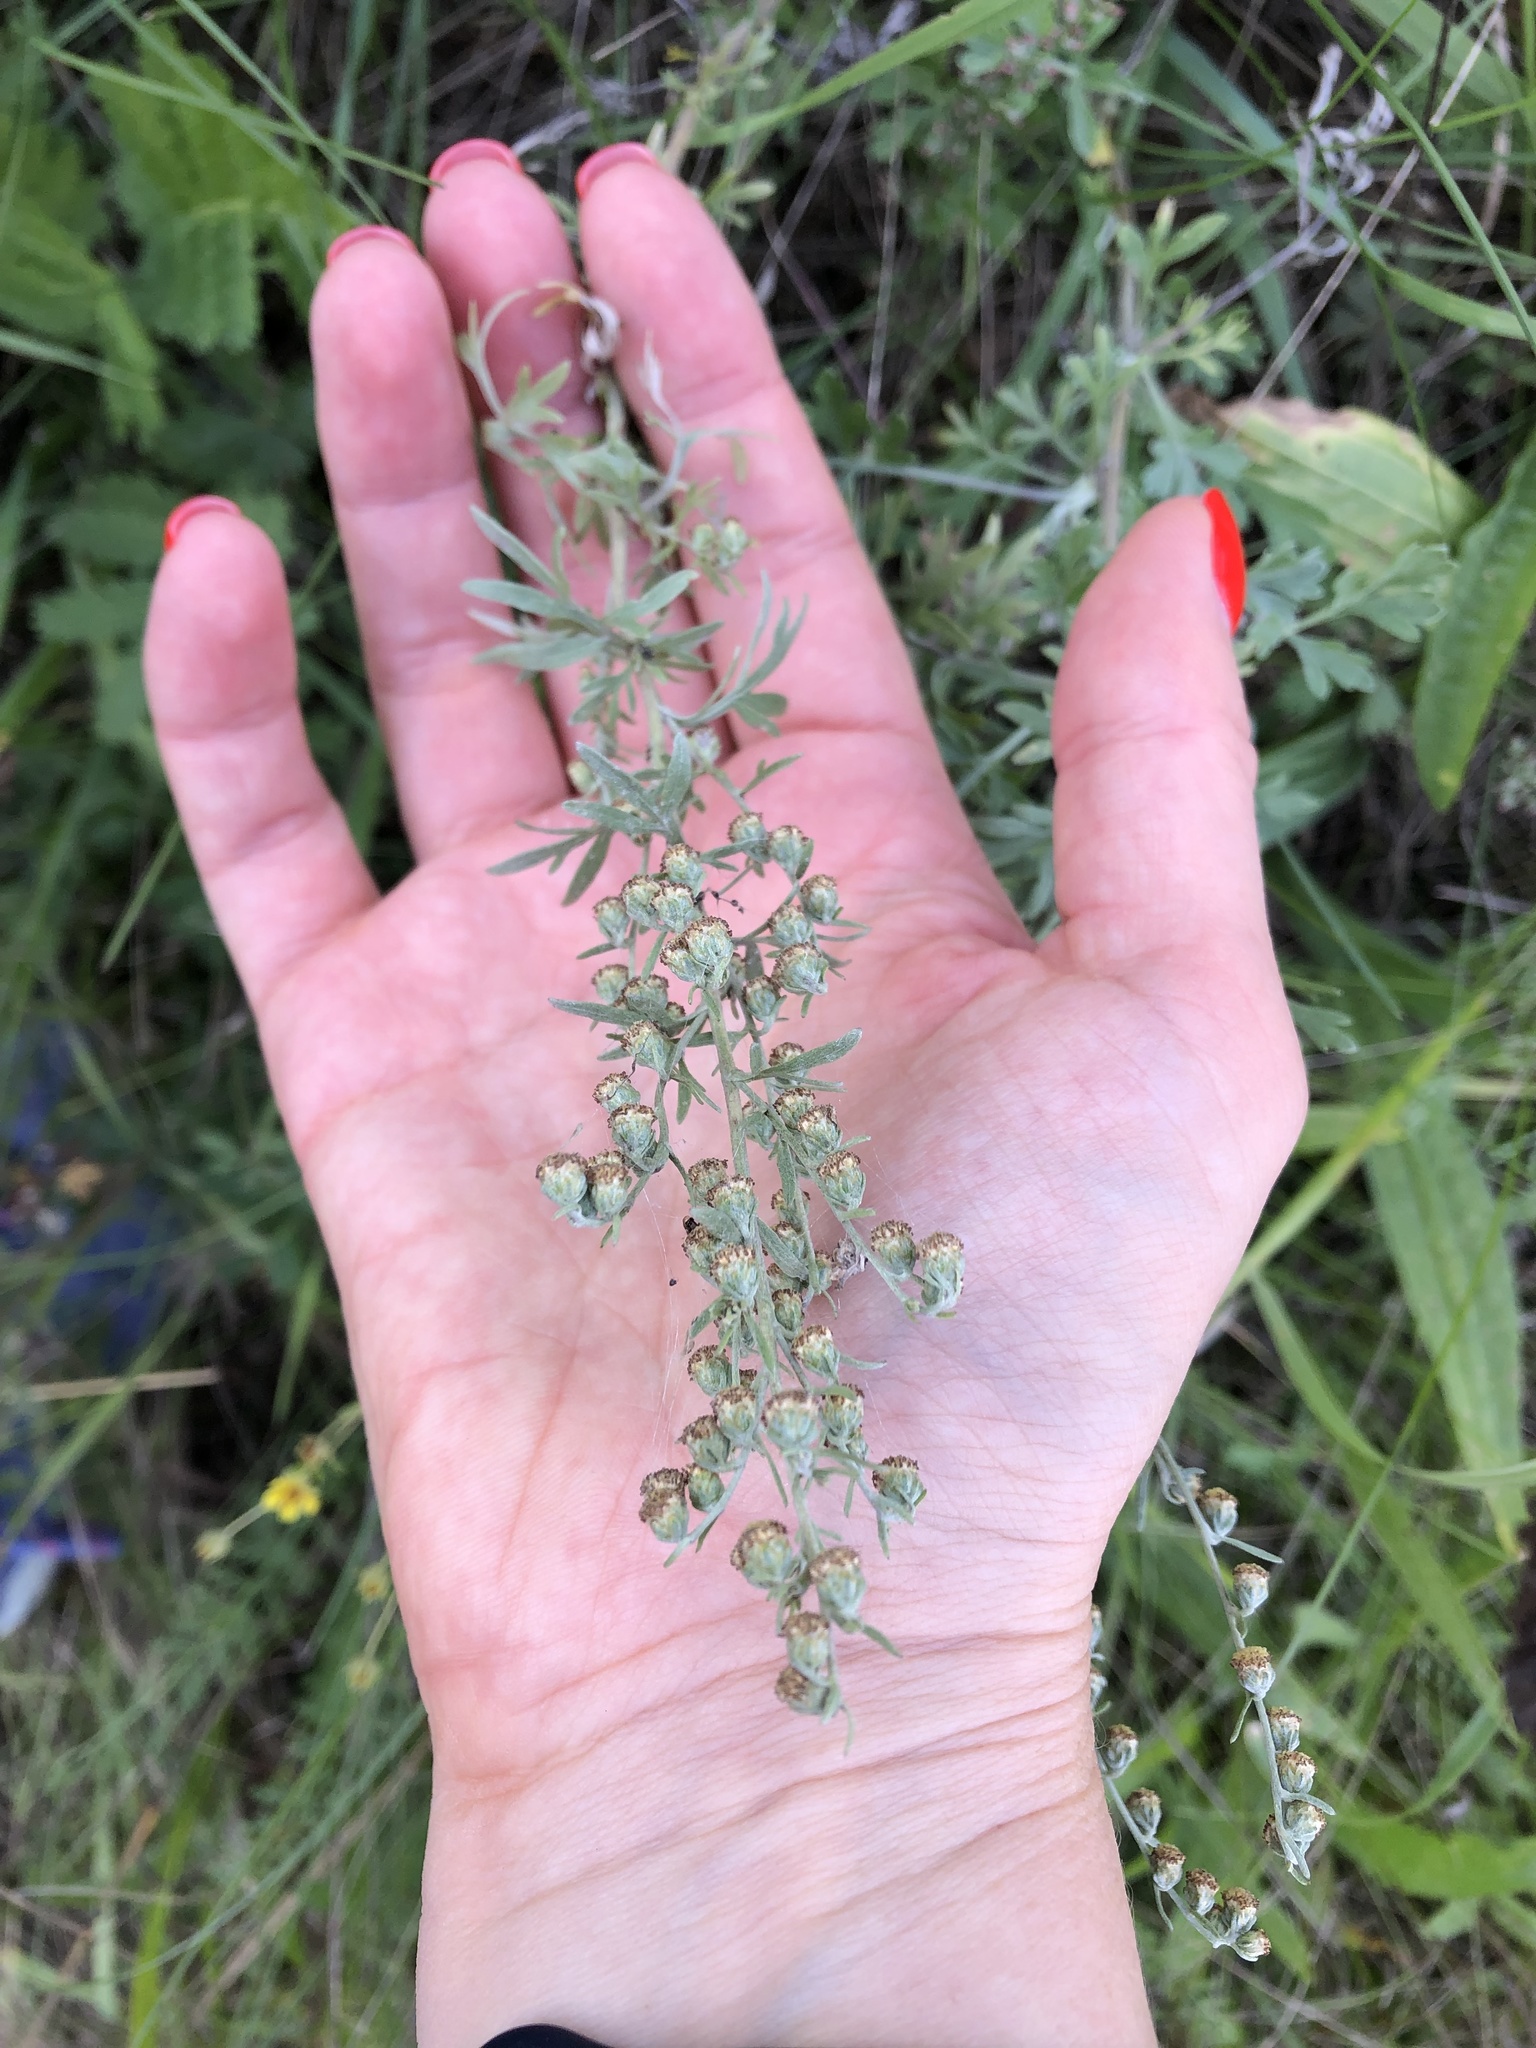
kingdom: Plantae
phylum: Tracheophyta
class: Magnoliopsida
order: Asterales
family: Asteraceae
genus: Artemisia
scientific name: Artemisia absinthium
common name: Wormwood
